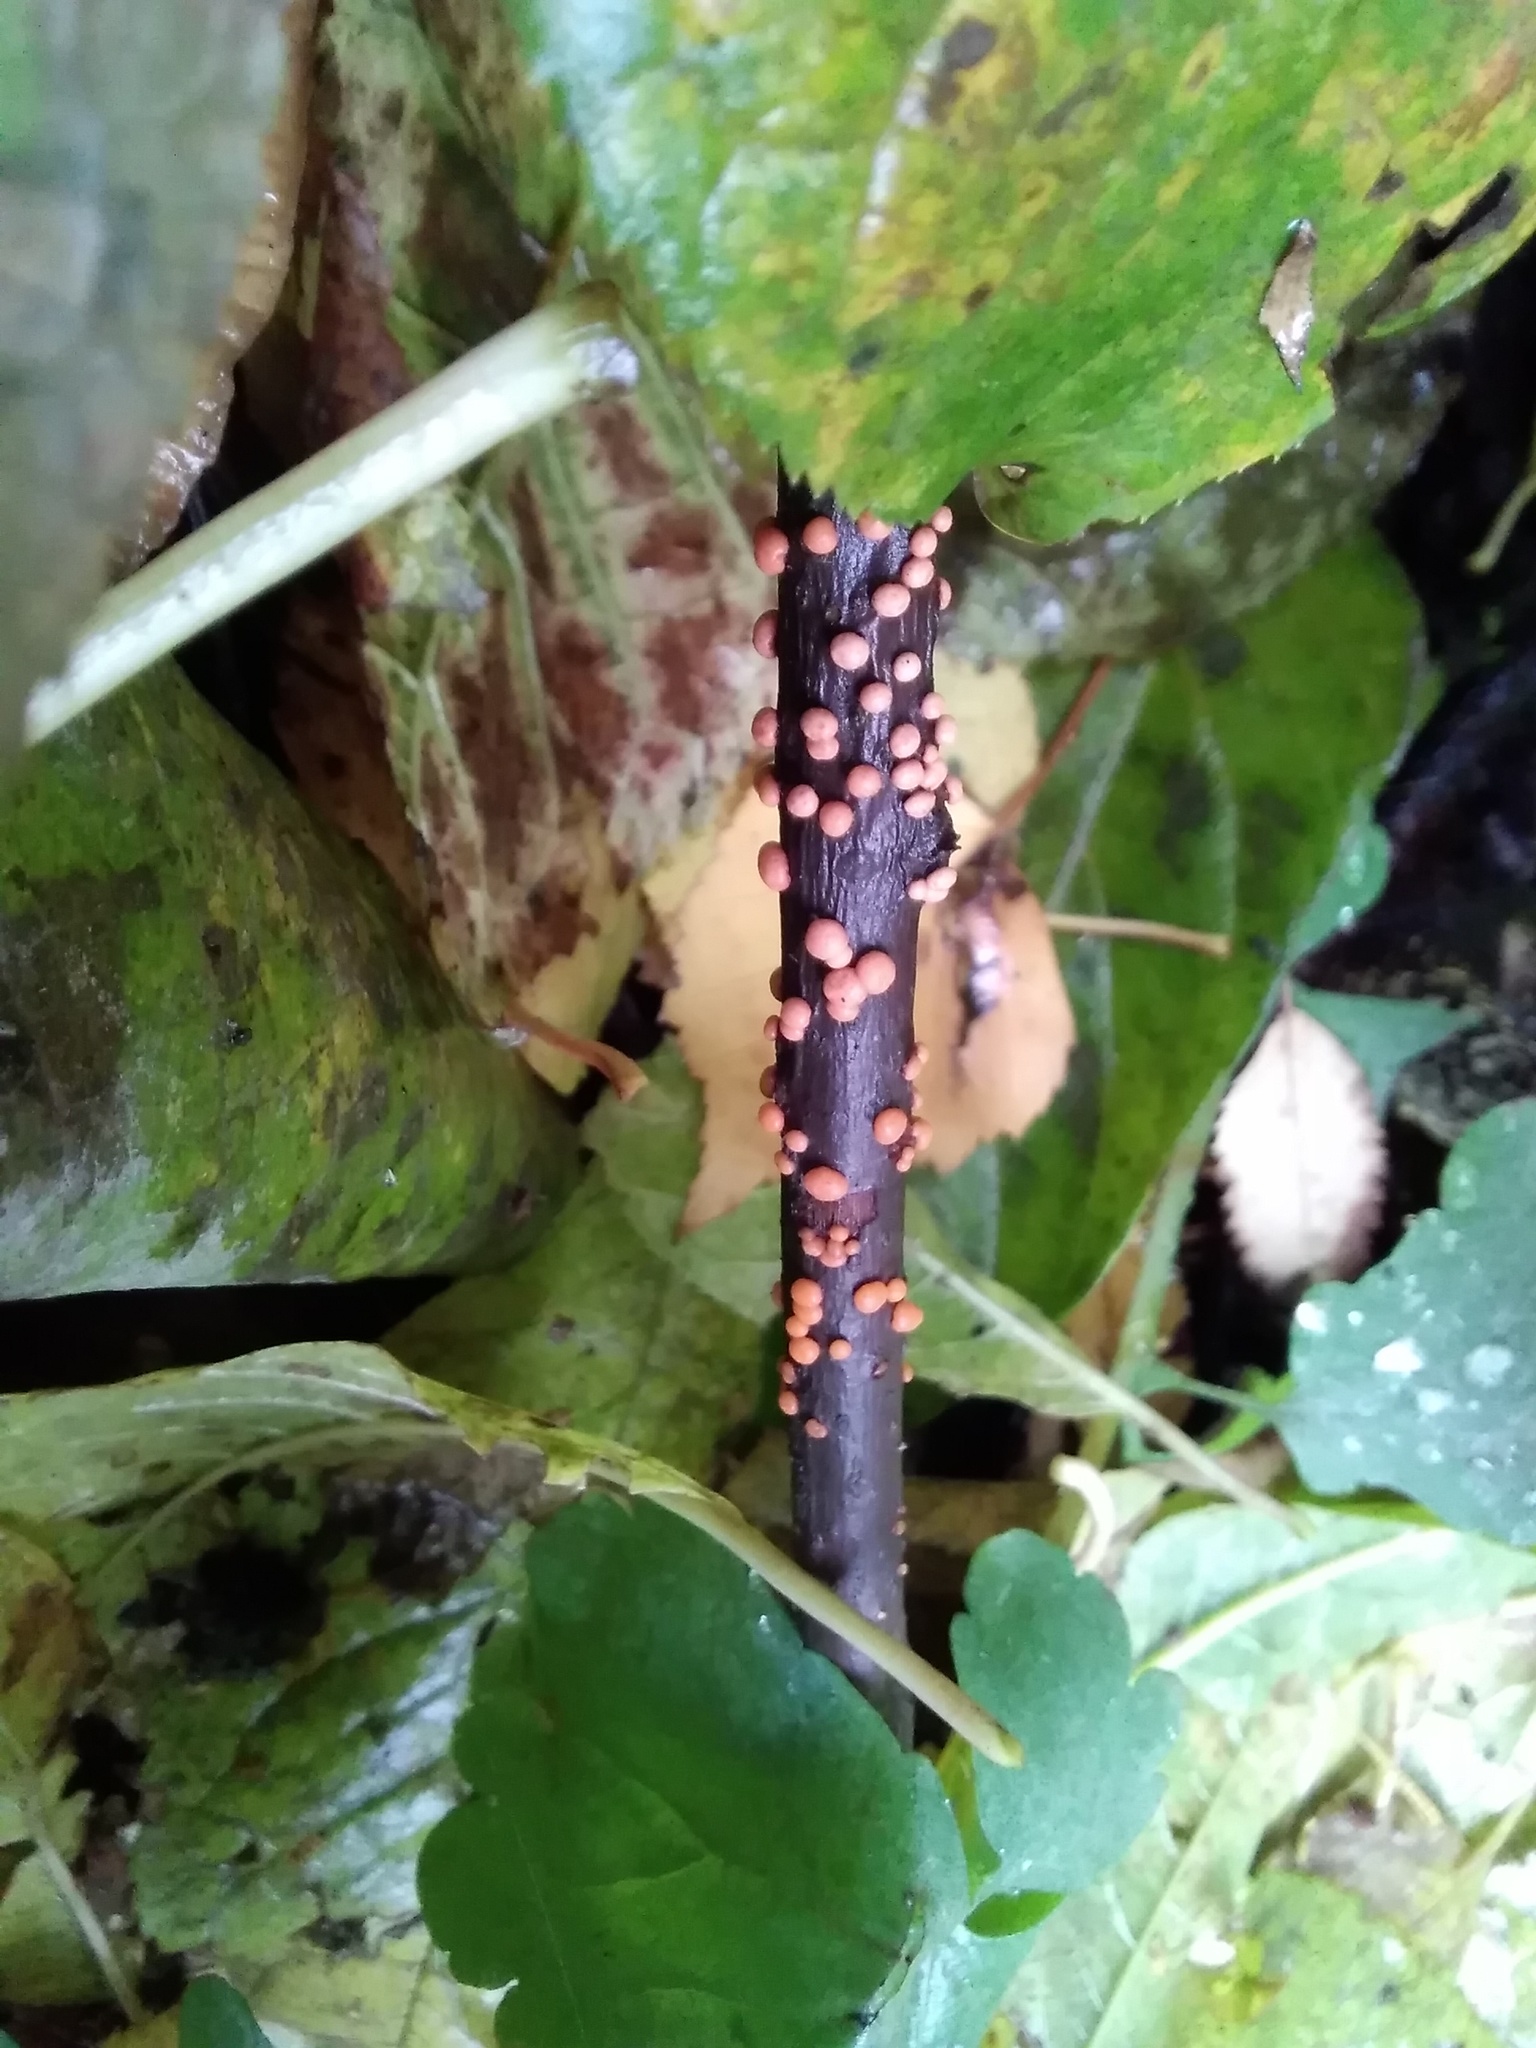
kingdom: Fungi
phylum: Ascomycota
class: Sordariomycetes
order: Hypocreales
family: Nectriaceae
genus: Nectria
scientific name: Nectria cinnabarina
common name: Coral spot
